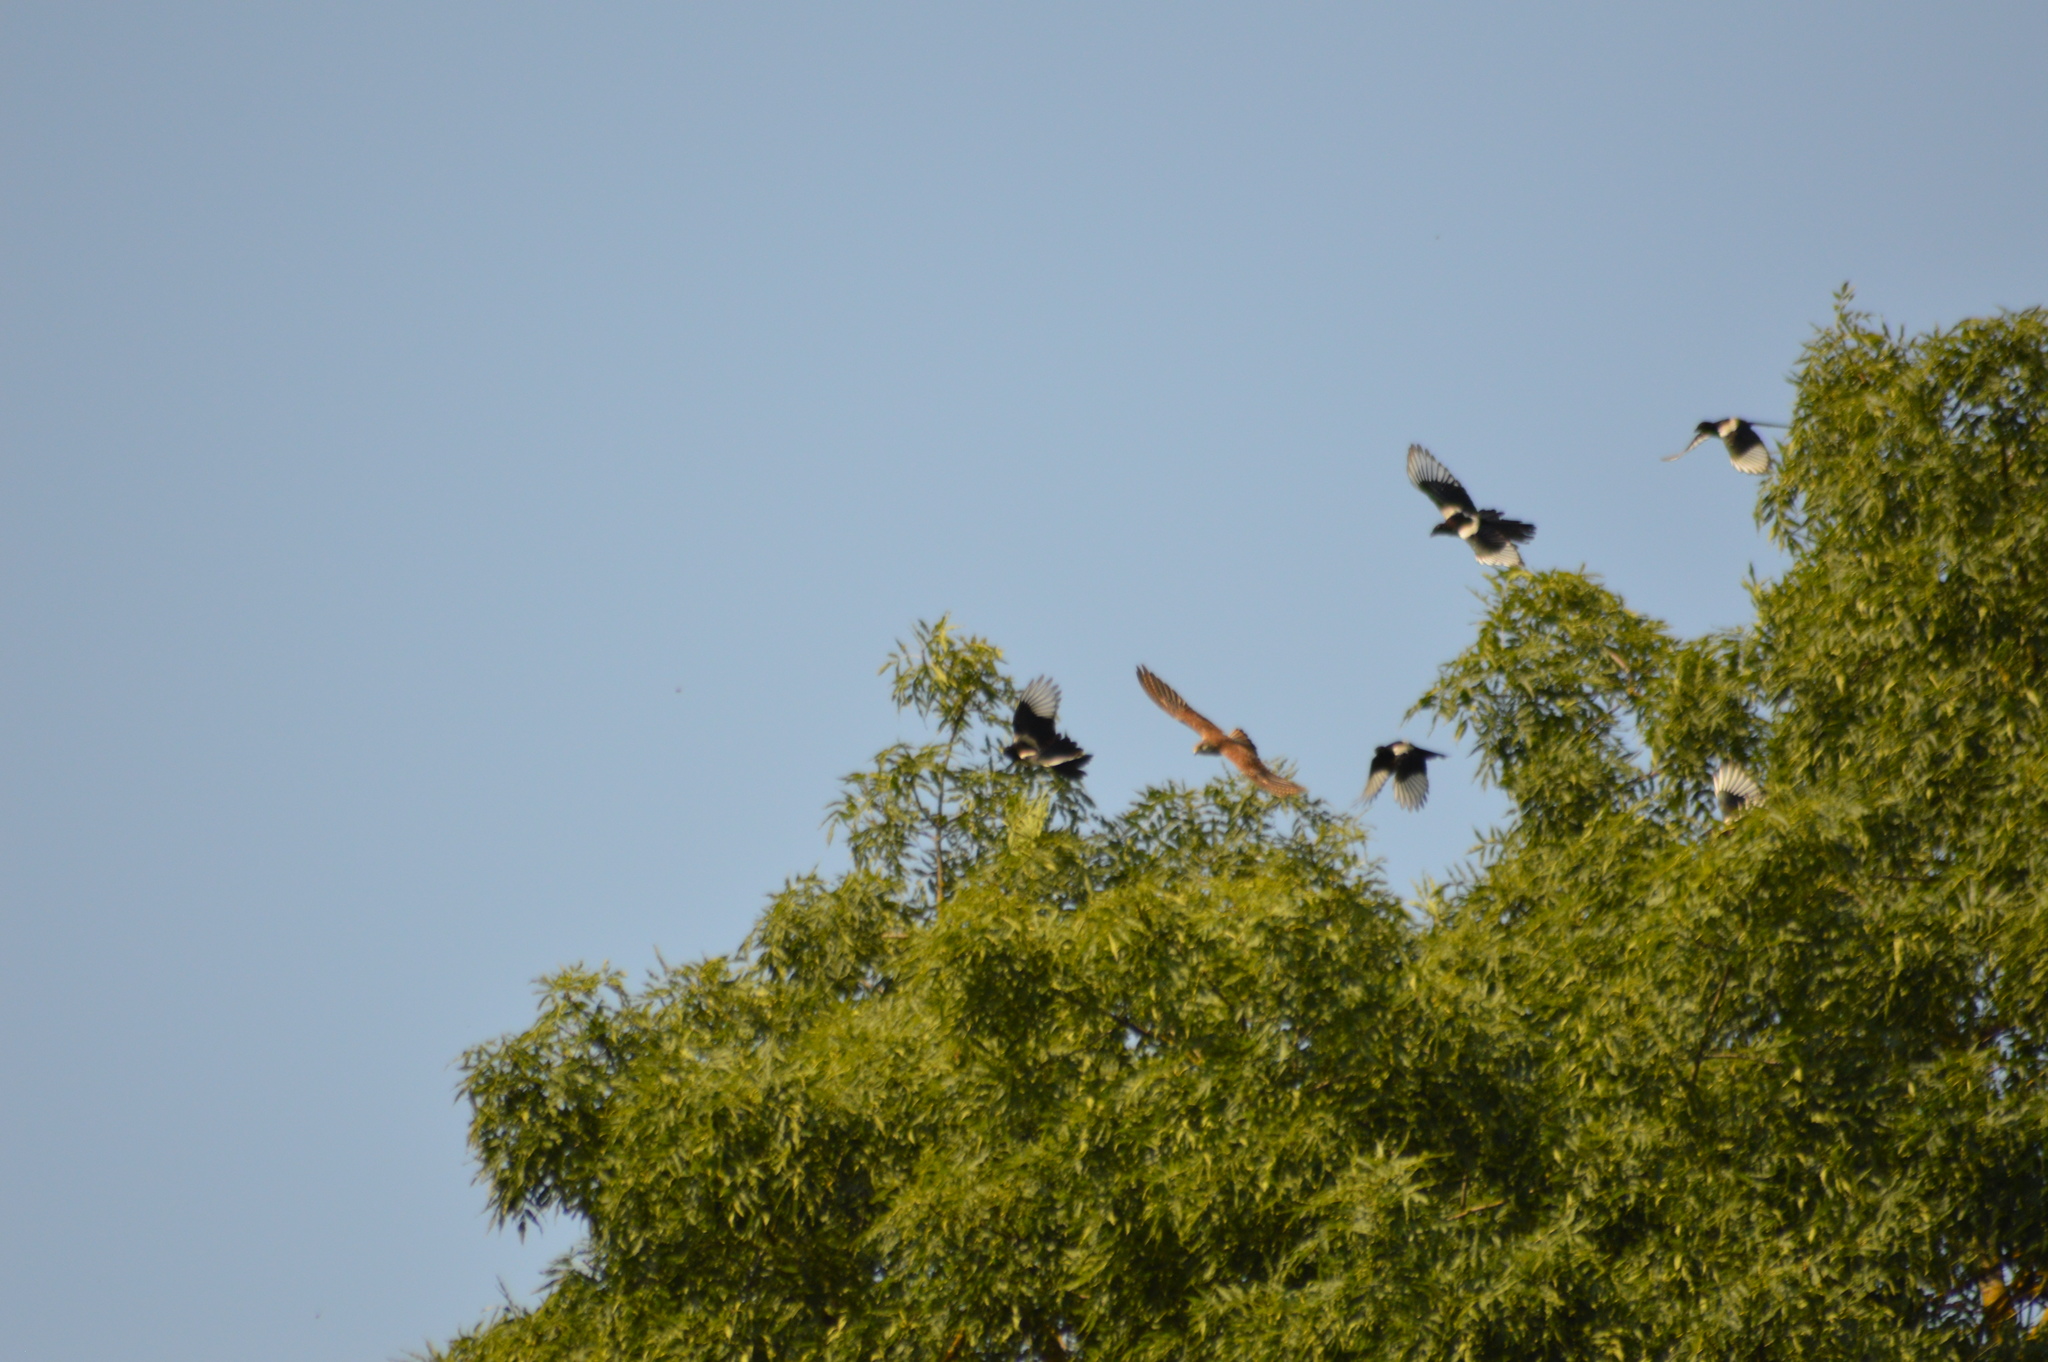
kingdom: Animalia
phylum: Chordata
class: Aves
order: Passeriformes
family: Corvidae
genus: Pica
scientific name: Pica pica
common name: Eurasian magpie
